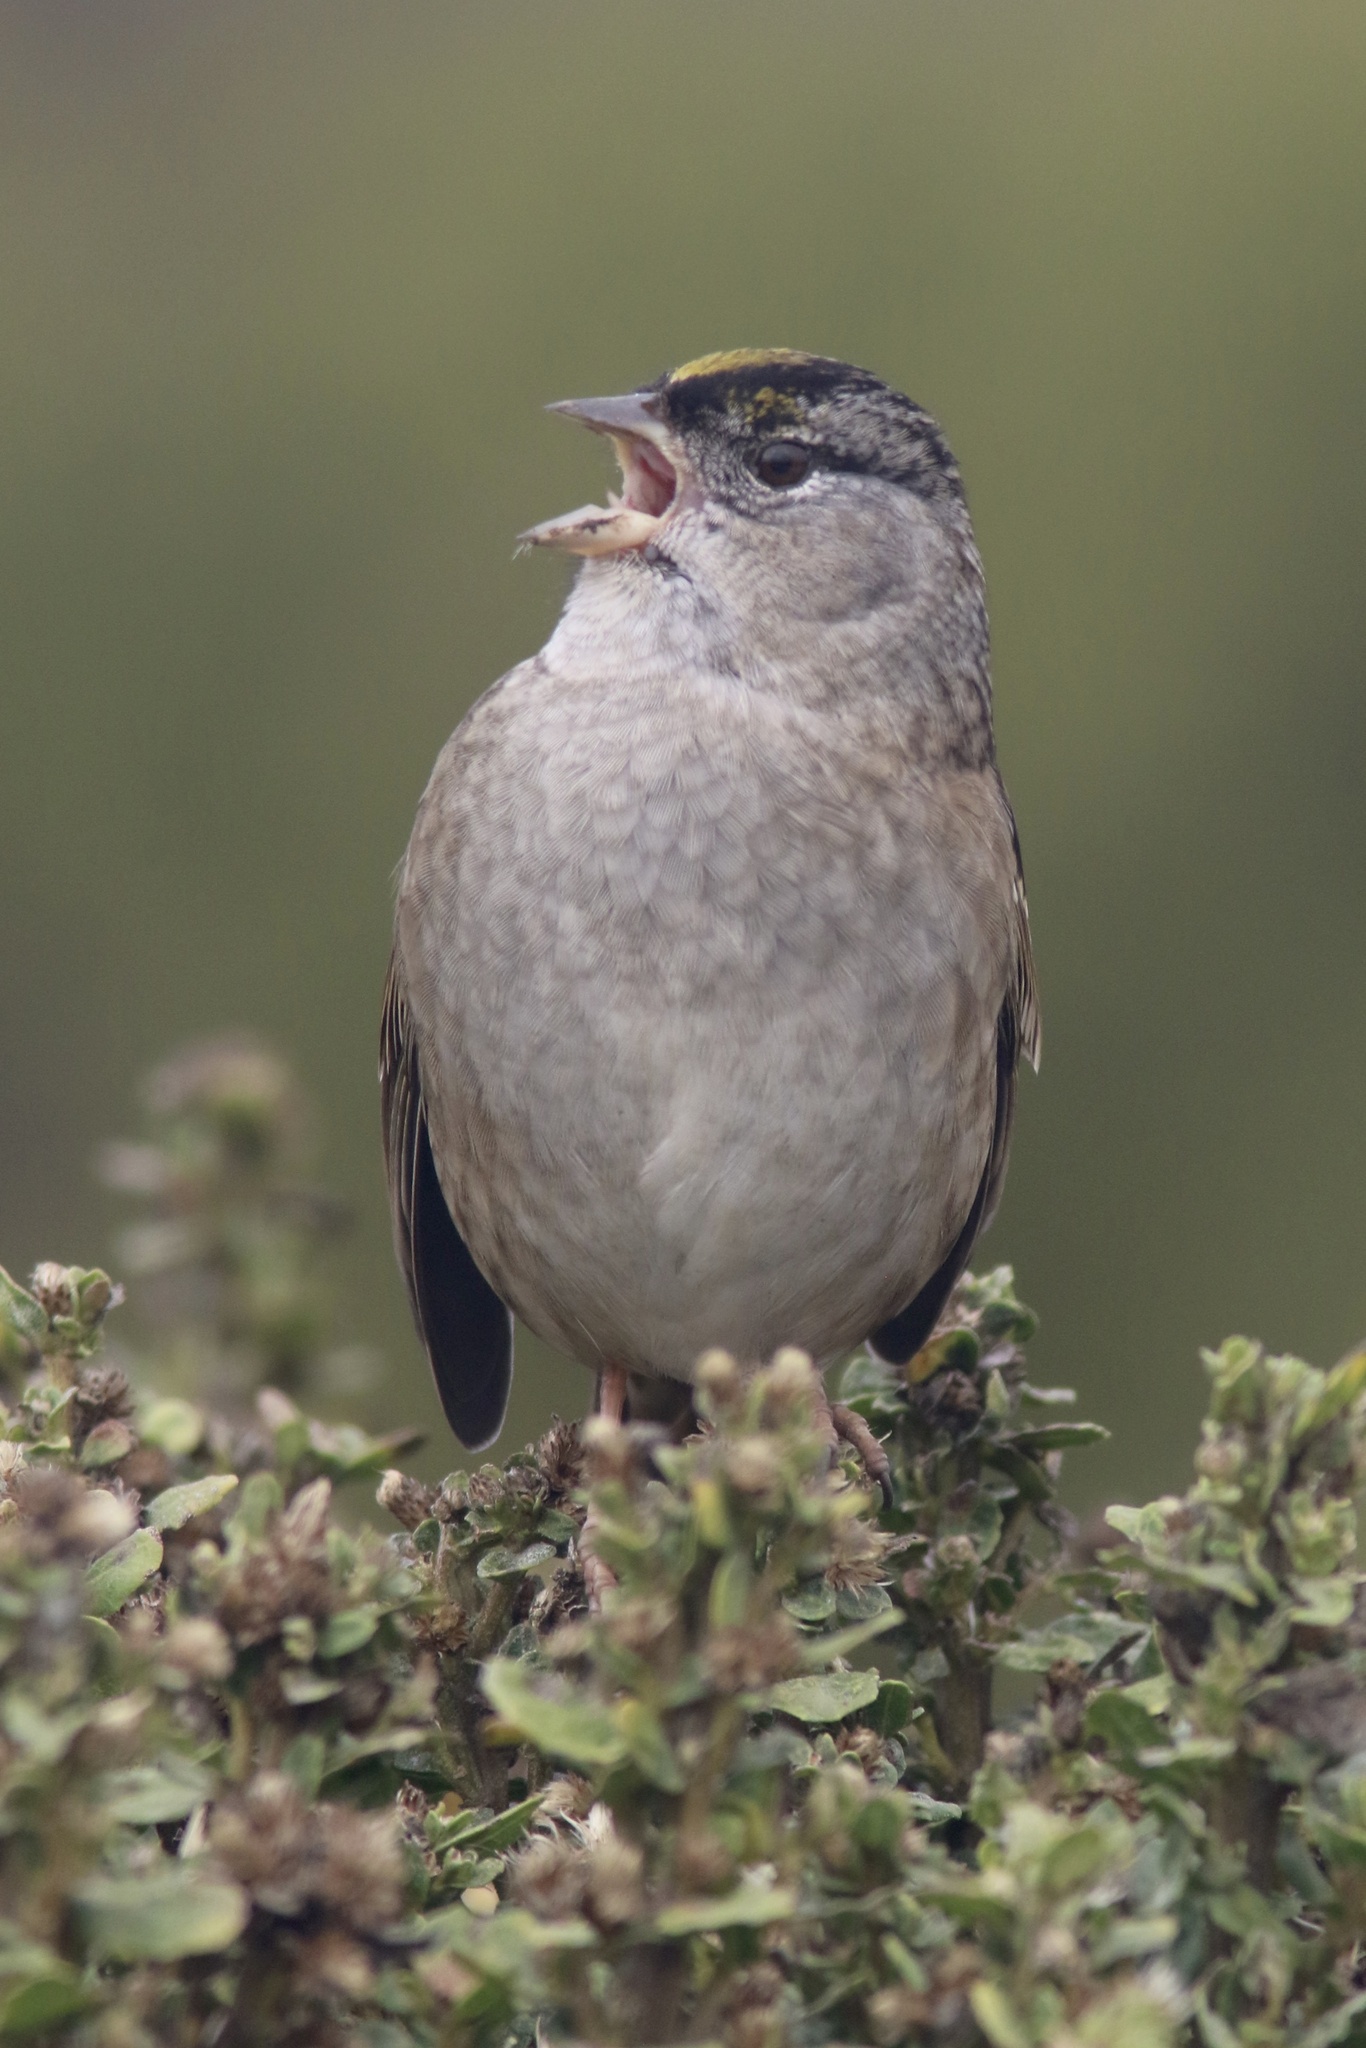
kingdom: Animalia
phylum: Chordata
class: Aves
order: Passeriformes
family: Passerellidae
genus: Zonotrichia
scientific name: Zonotrichia atricapilla
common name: Golden-crowned sparrow
